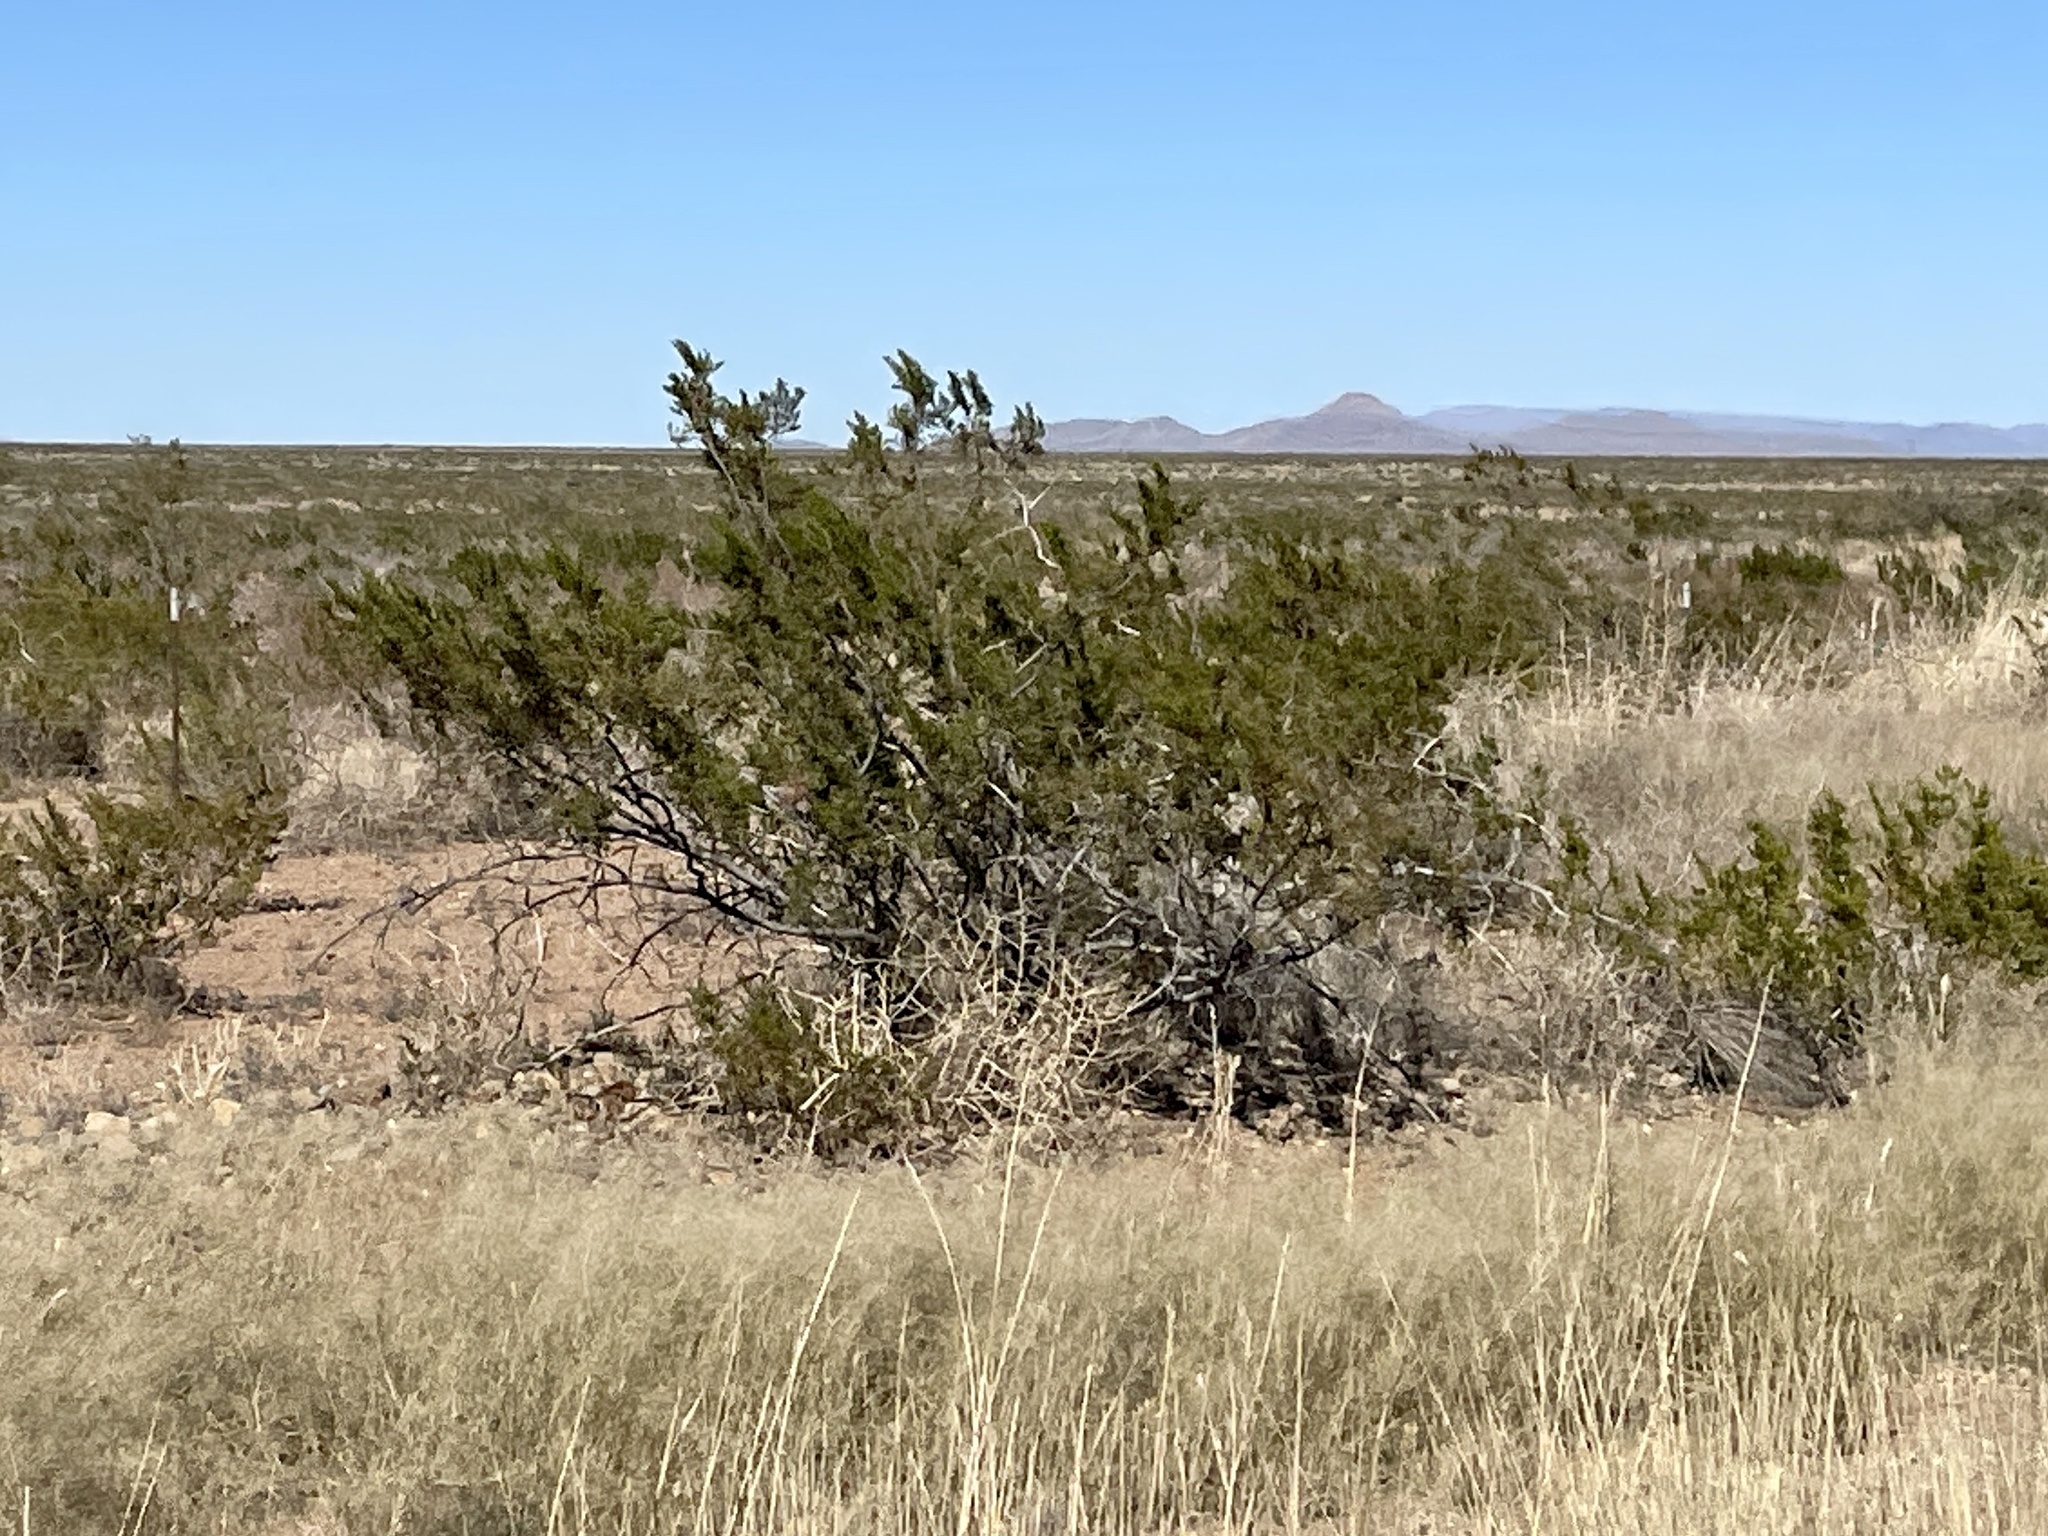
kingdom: Plantae
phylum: Tracheophyta
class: Magnoliopsida
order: Zygophyllales
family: Zygophyllaceae
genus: Larrea
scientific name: Larrea tridentata
